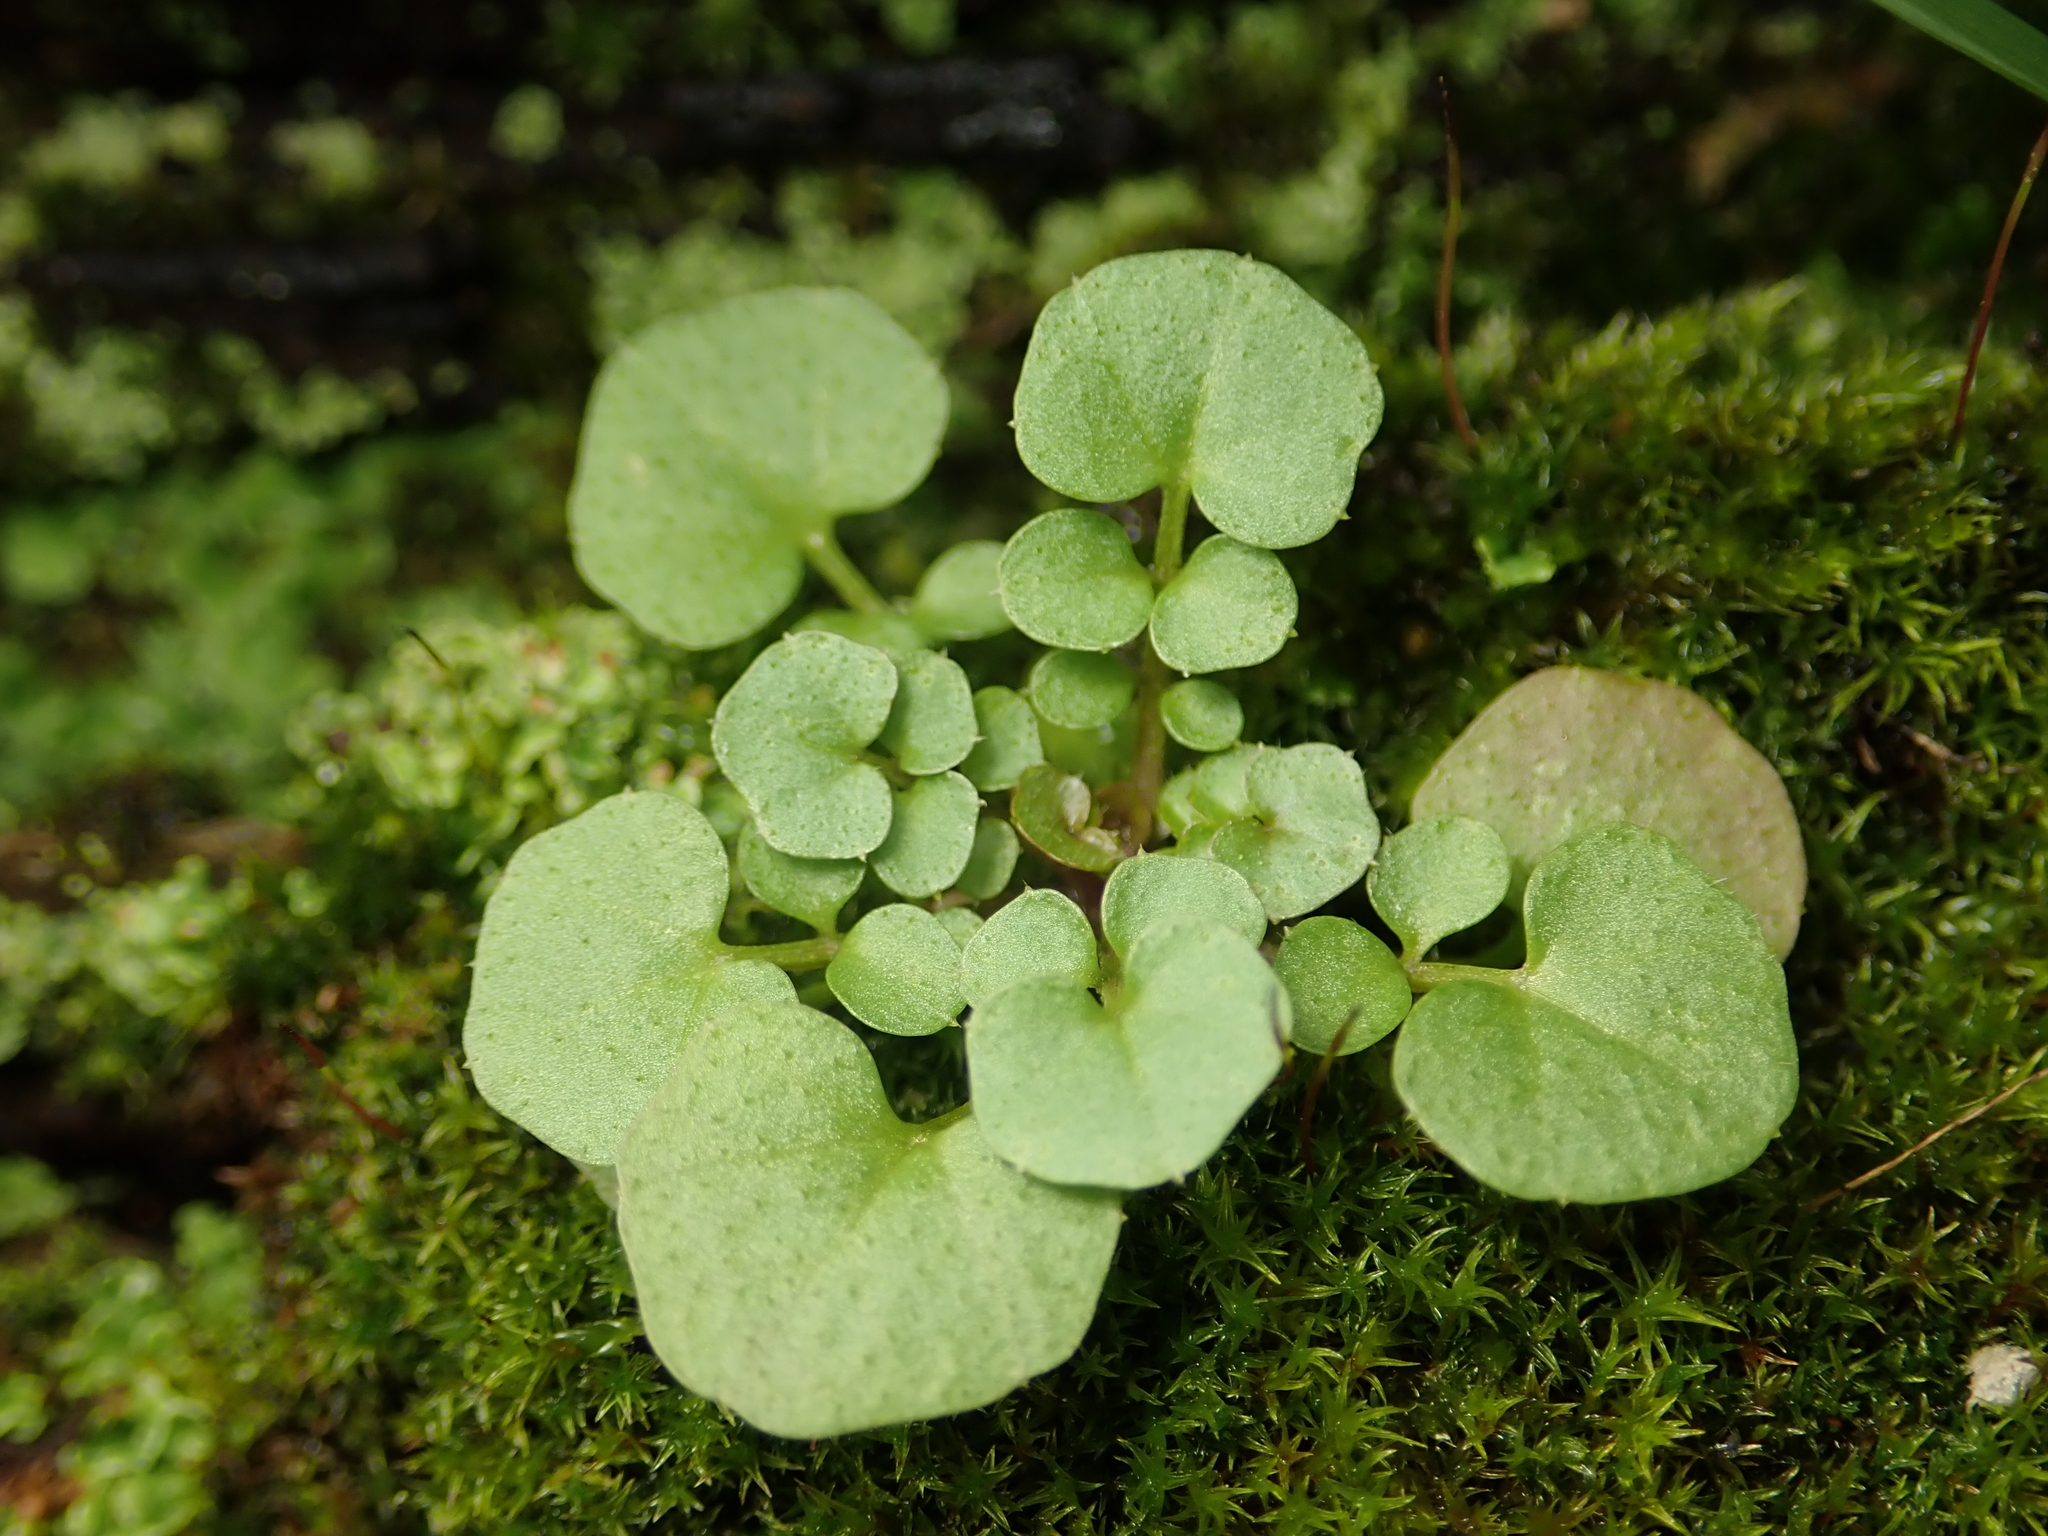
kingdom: Plantae
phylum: Tracheophyta
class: Magnoliopsida
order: Brassicales
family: Brassicaceae
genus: Cardamine
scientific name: Cardamine hirsuta
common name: Hairy bittercress
